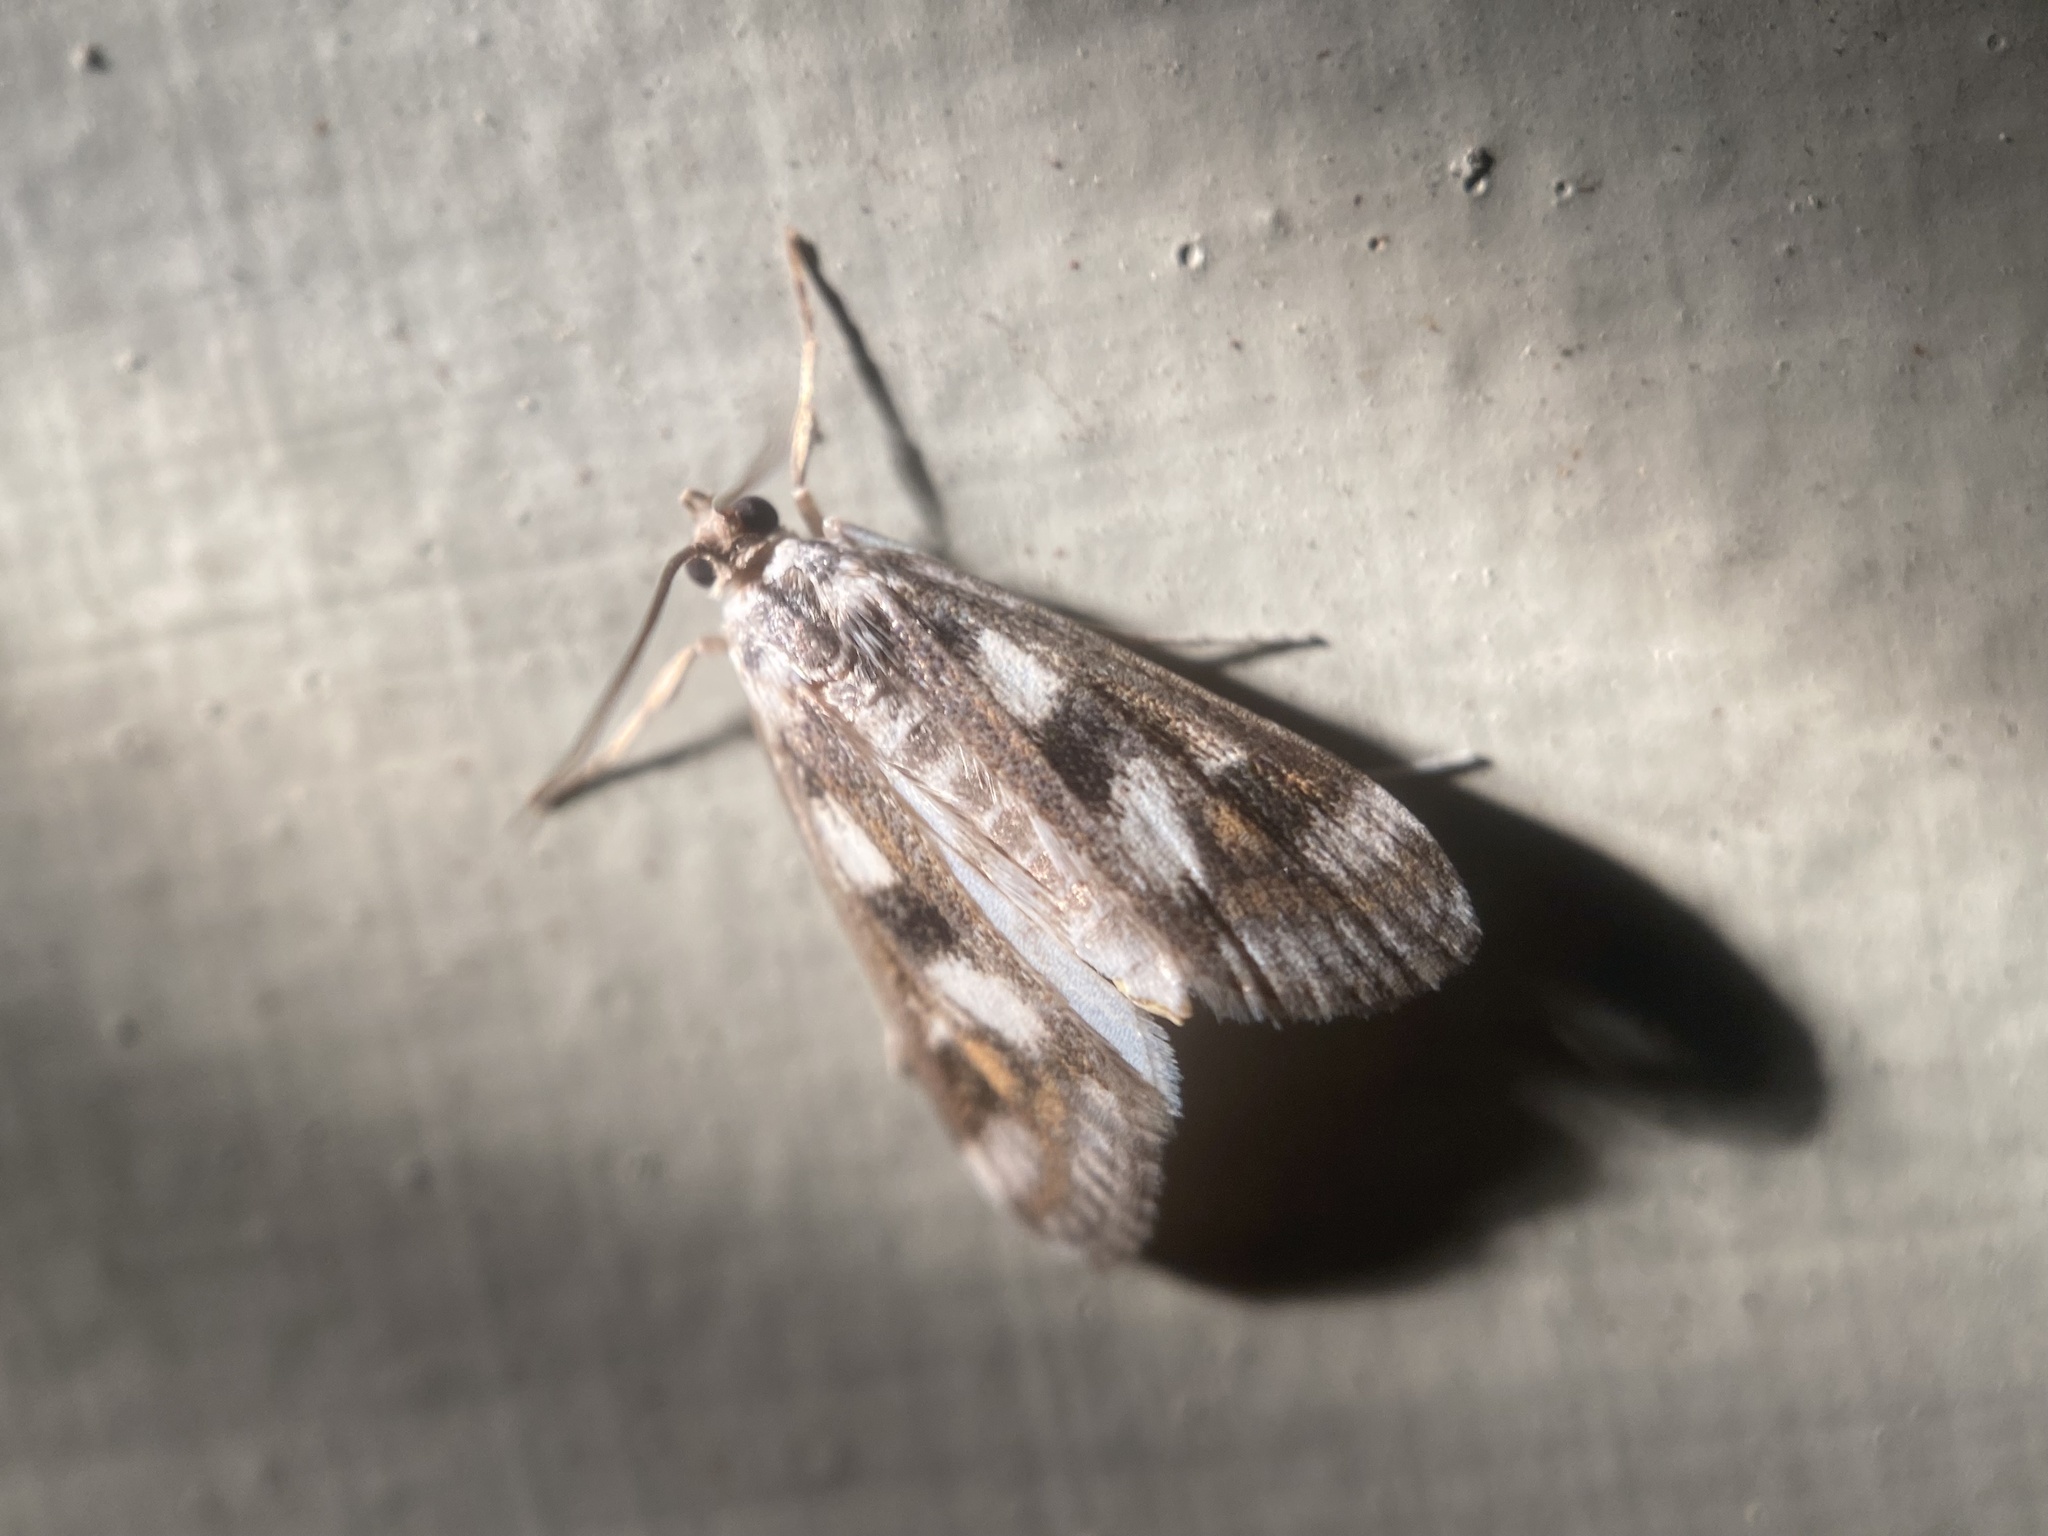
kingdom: Animalia
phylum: Arthropoda
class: Insecta
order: Lepidoptera
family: Crambidae
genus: Parapoynx
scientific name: Parapoynx maculalis
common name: Polymorphic pondweed moth
